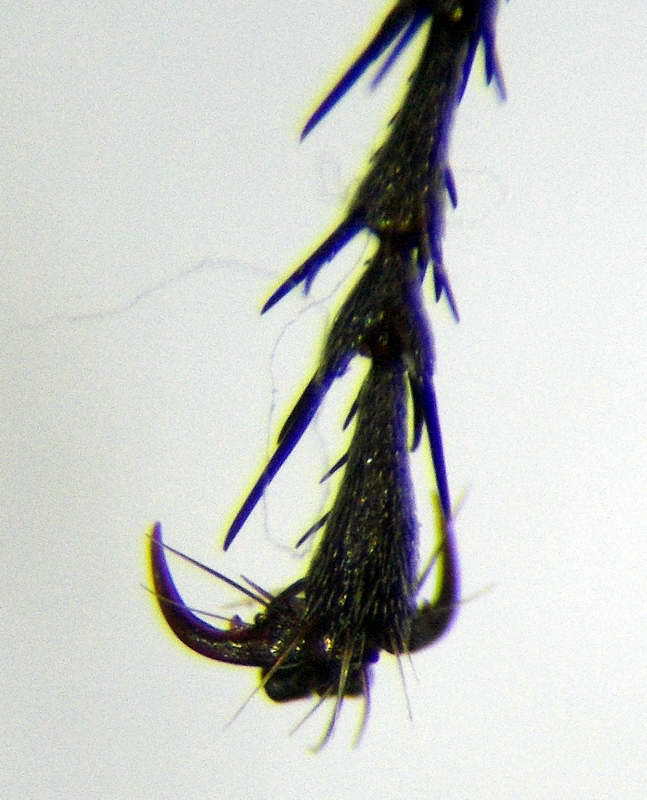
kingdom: Animalia
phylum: Arthropoda
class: Insecta
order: Hymenoptera
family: Sphecidae
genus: Prionyx
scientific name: Prionyx subfuscatus
